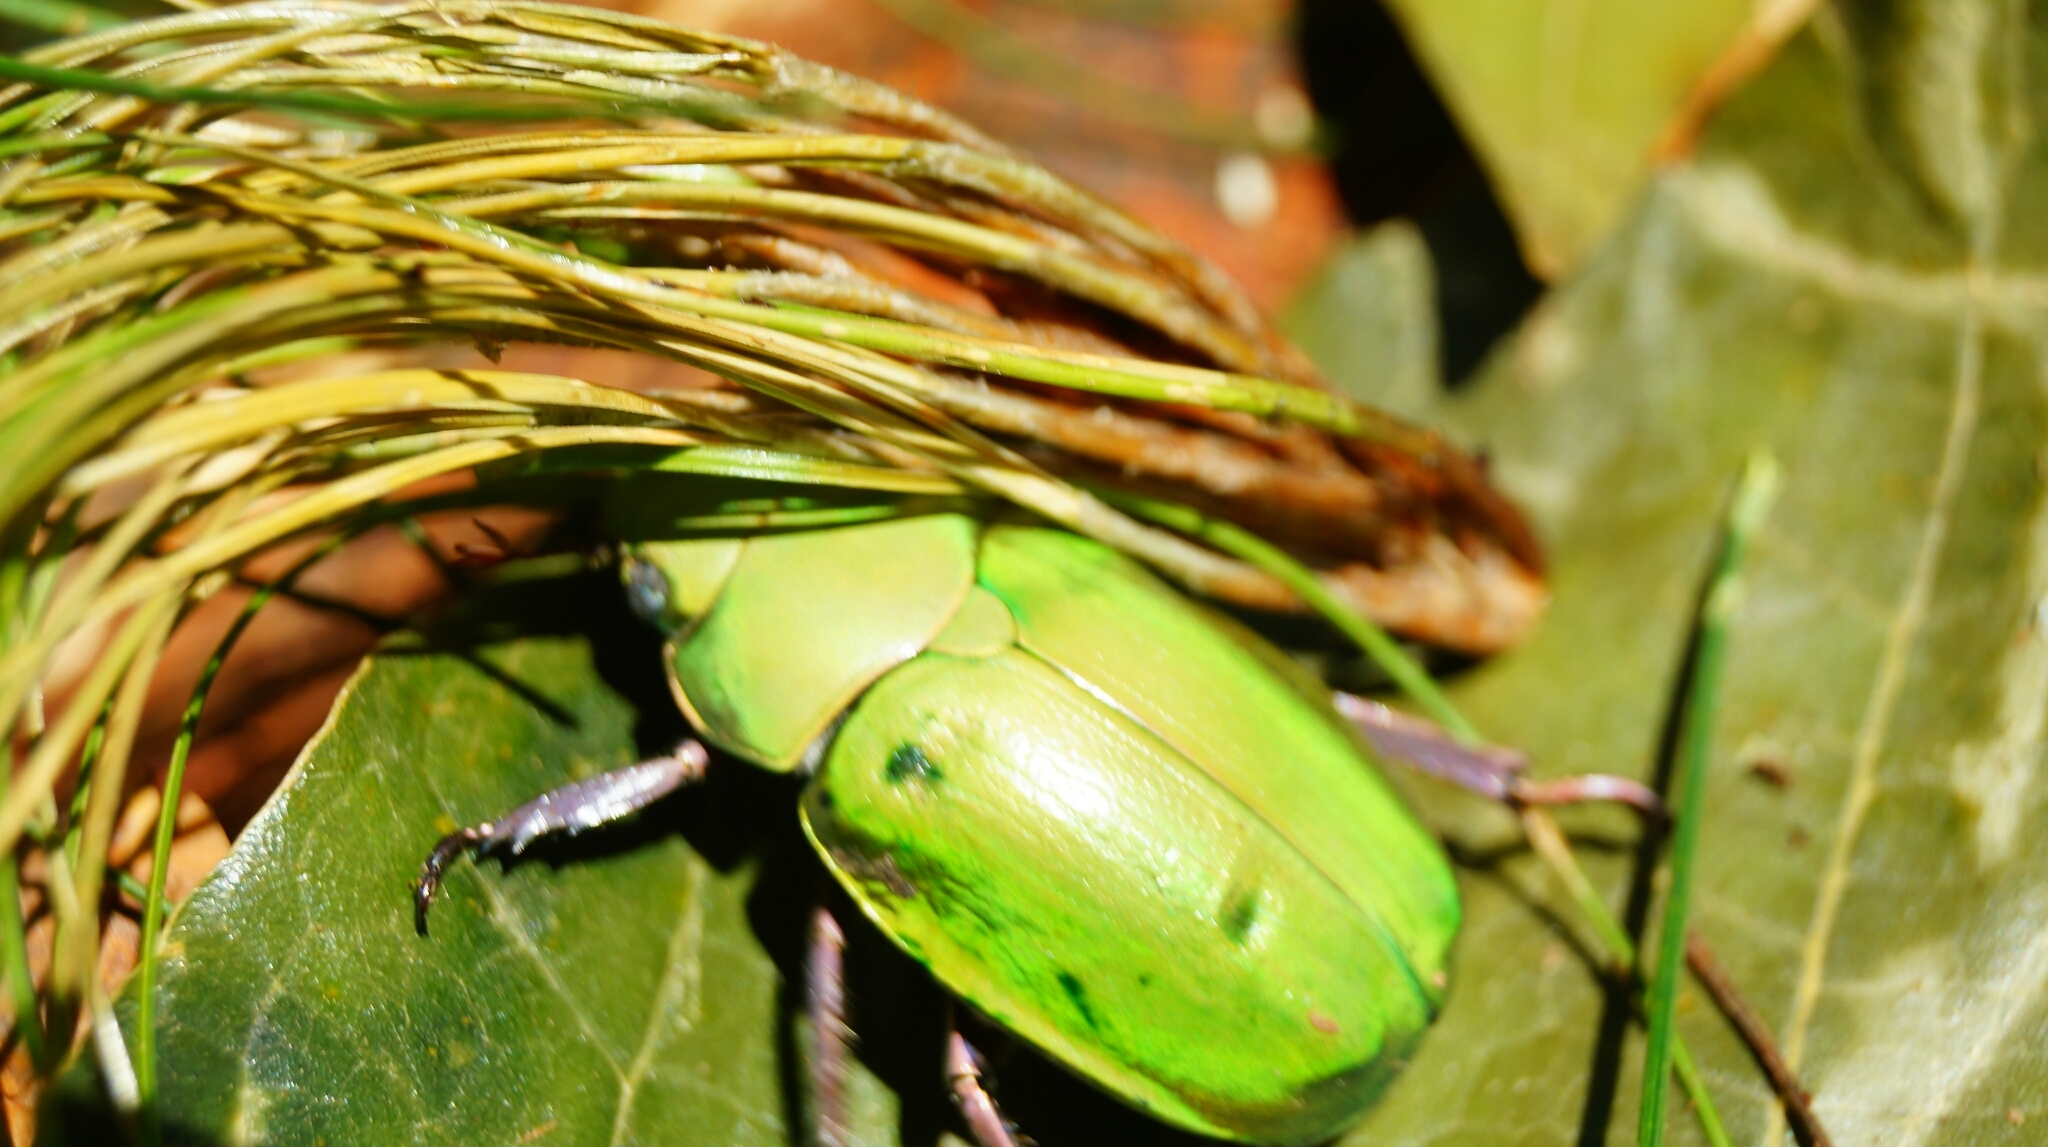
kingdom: Animalia
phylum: Arthropoda
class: Insecta
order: Coleoptera
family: Scarabaeidae
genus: Chrysina
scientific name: Chrysina prasina
